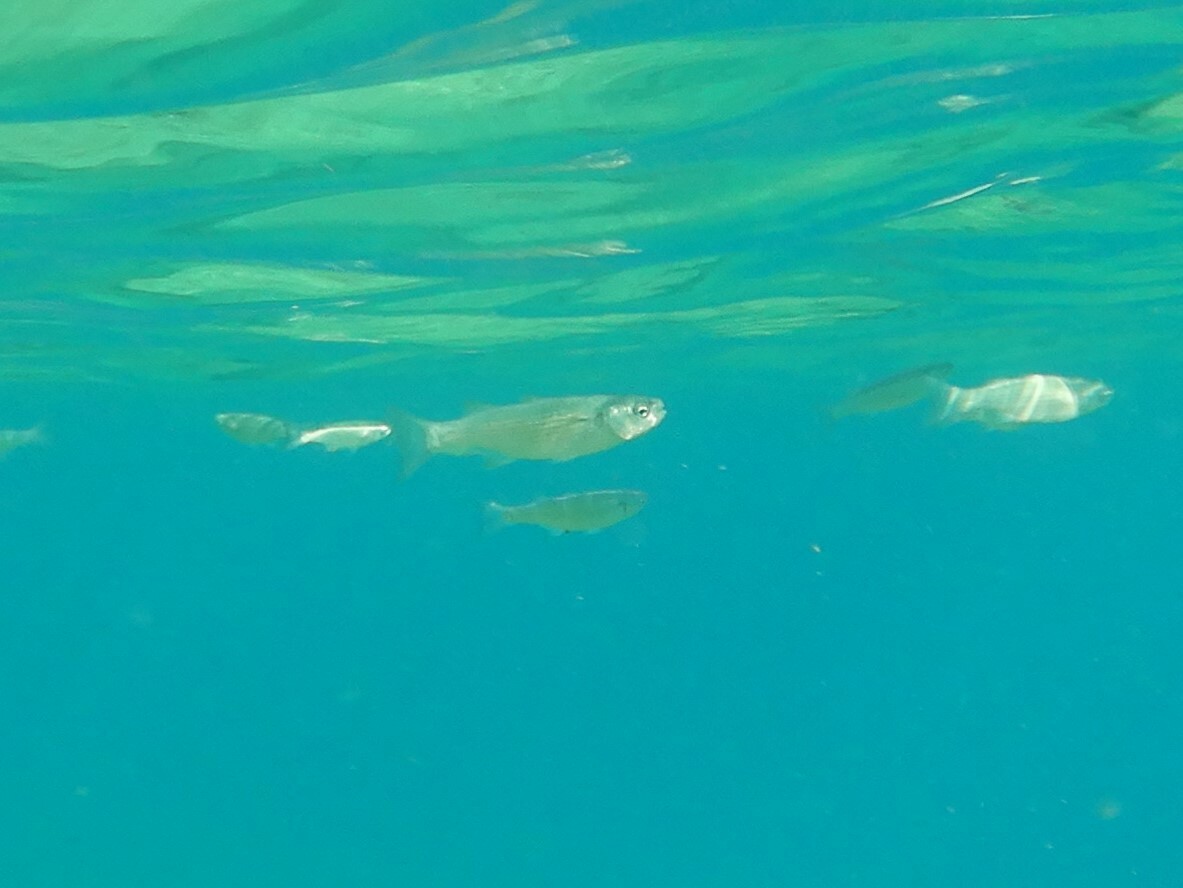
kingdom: Animalia
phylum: Chordata
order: Mugiliformes
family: Mugilidae
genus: Oedalechilus
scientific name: Oedalechilus labeo
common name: Boxlip mullet
